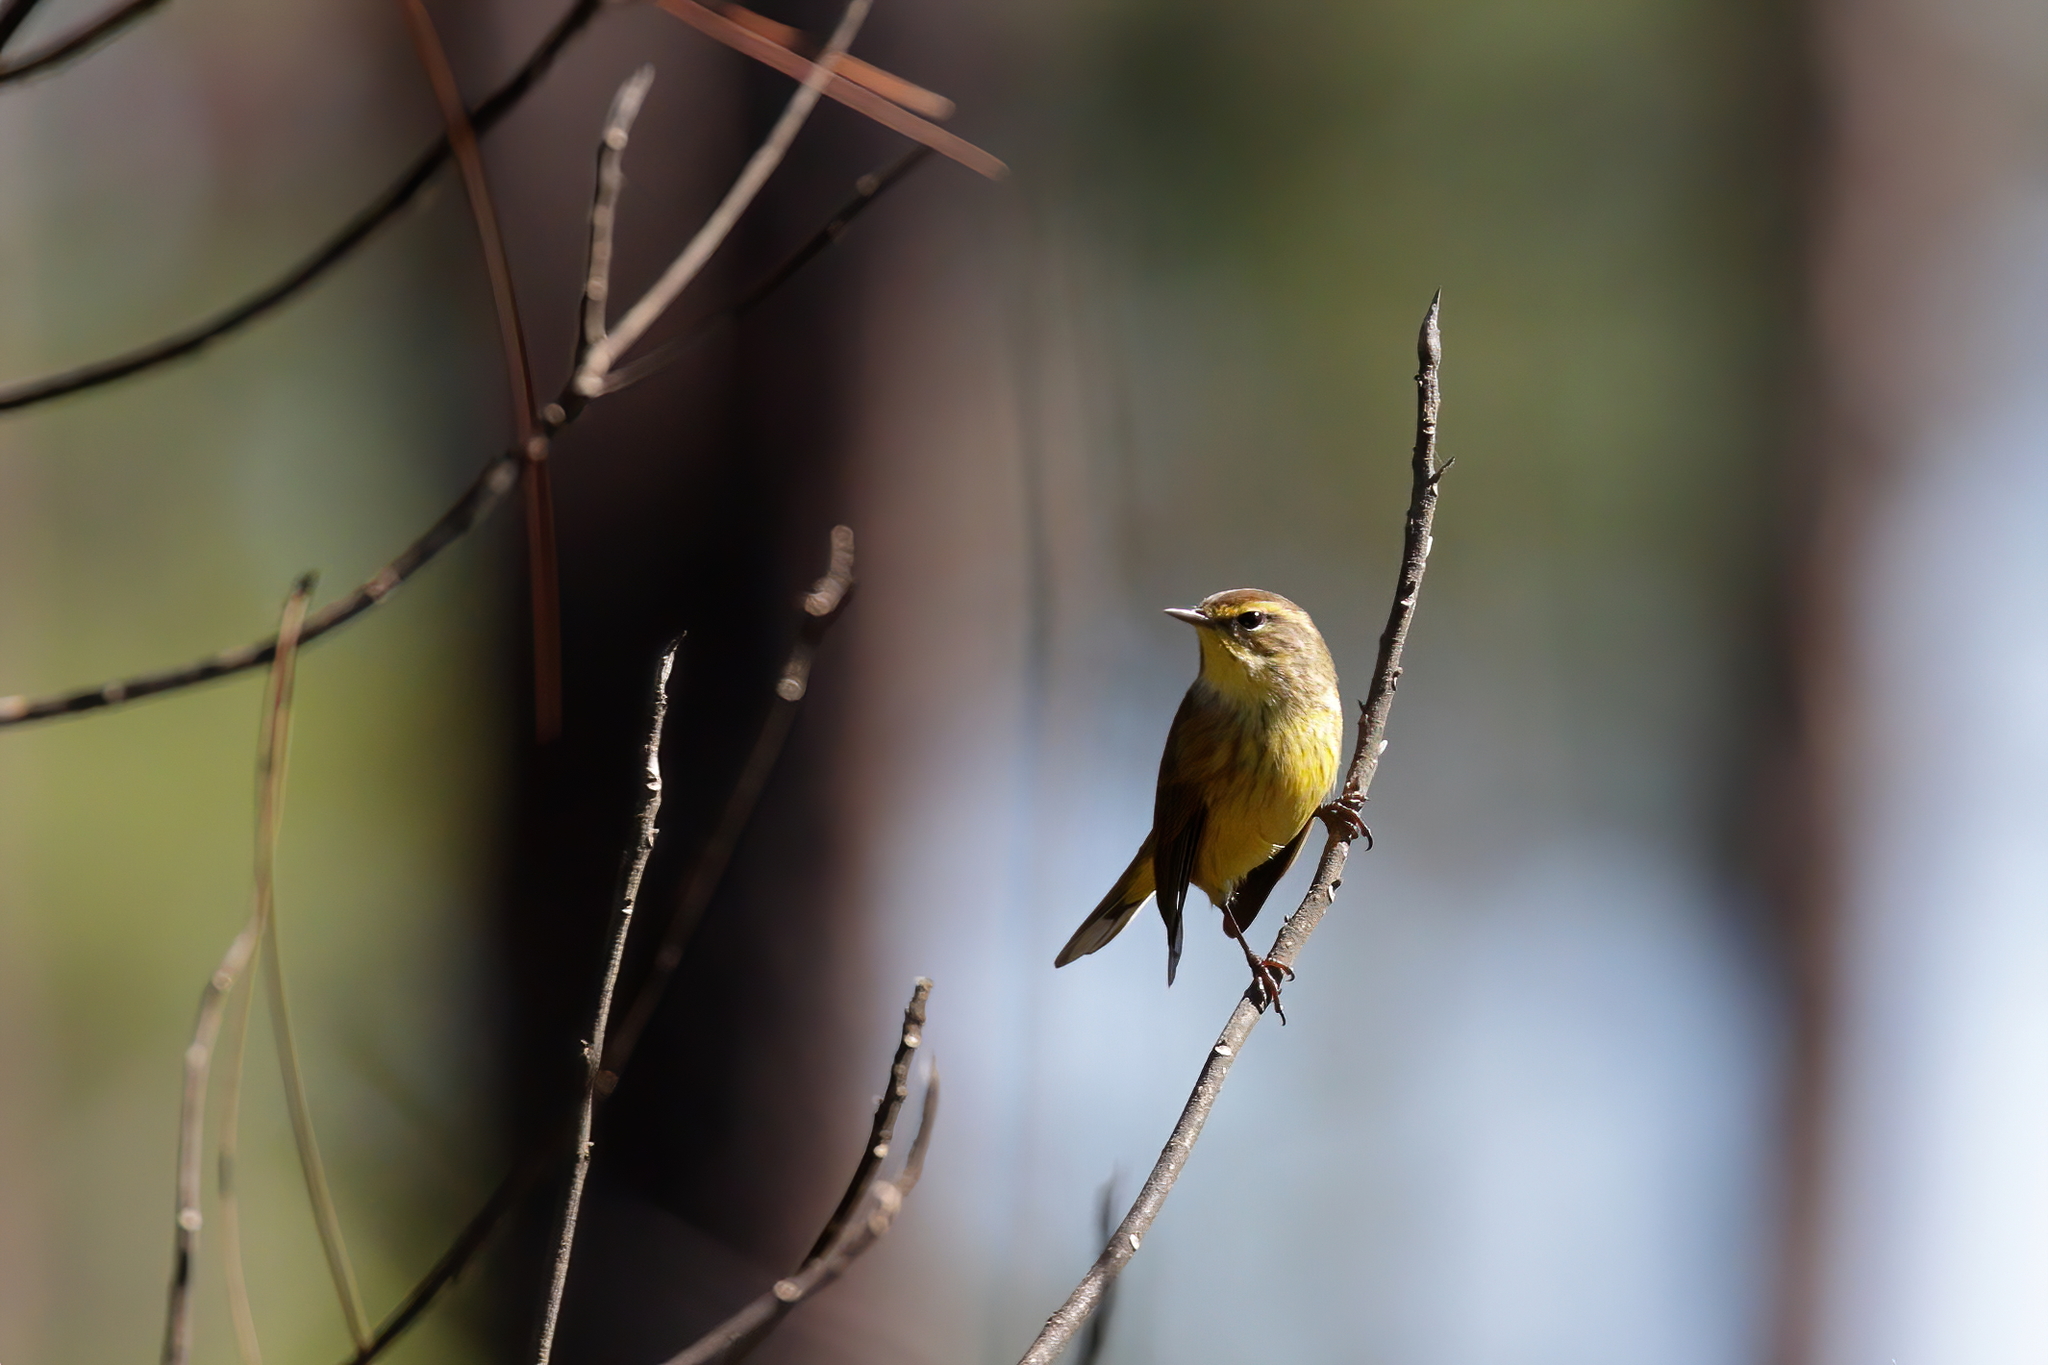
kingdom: Animalia
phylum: Chordata
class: Aves
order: Passeriformes
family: Parulidae
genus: Setophaga
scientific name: Setophaga palmarum
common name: Palm warbler
